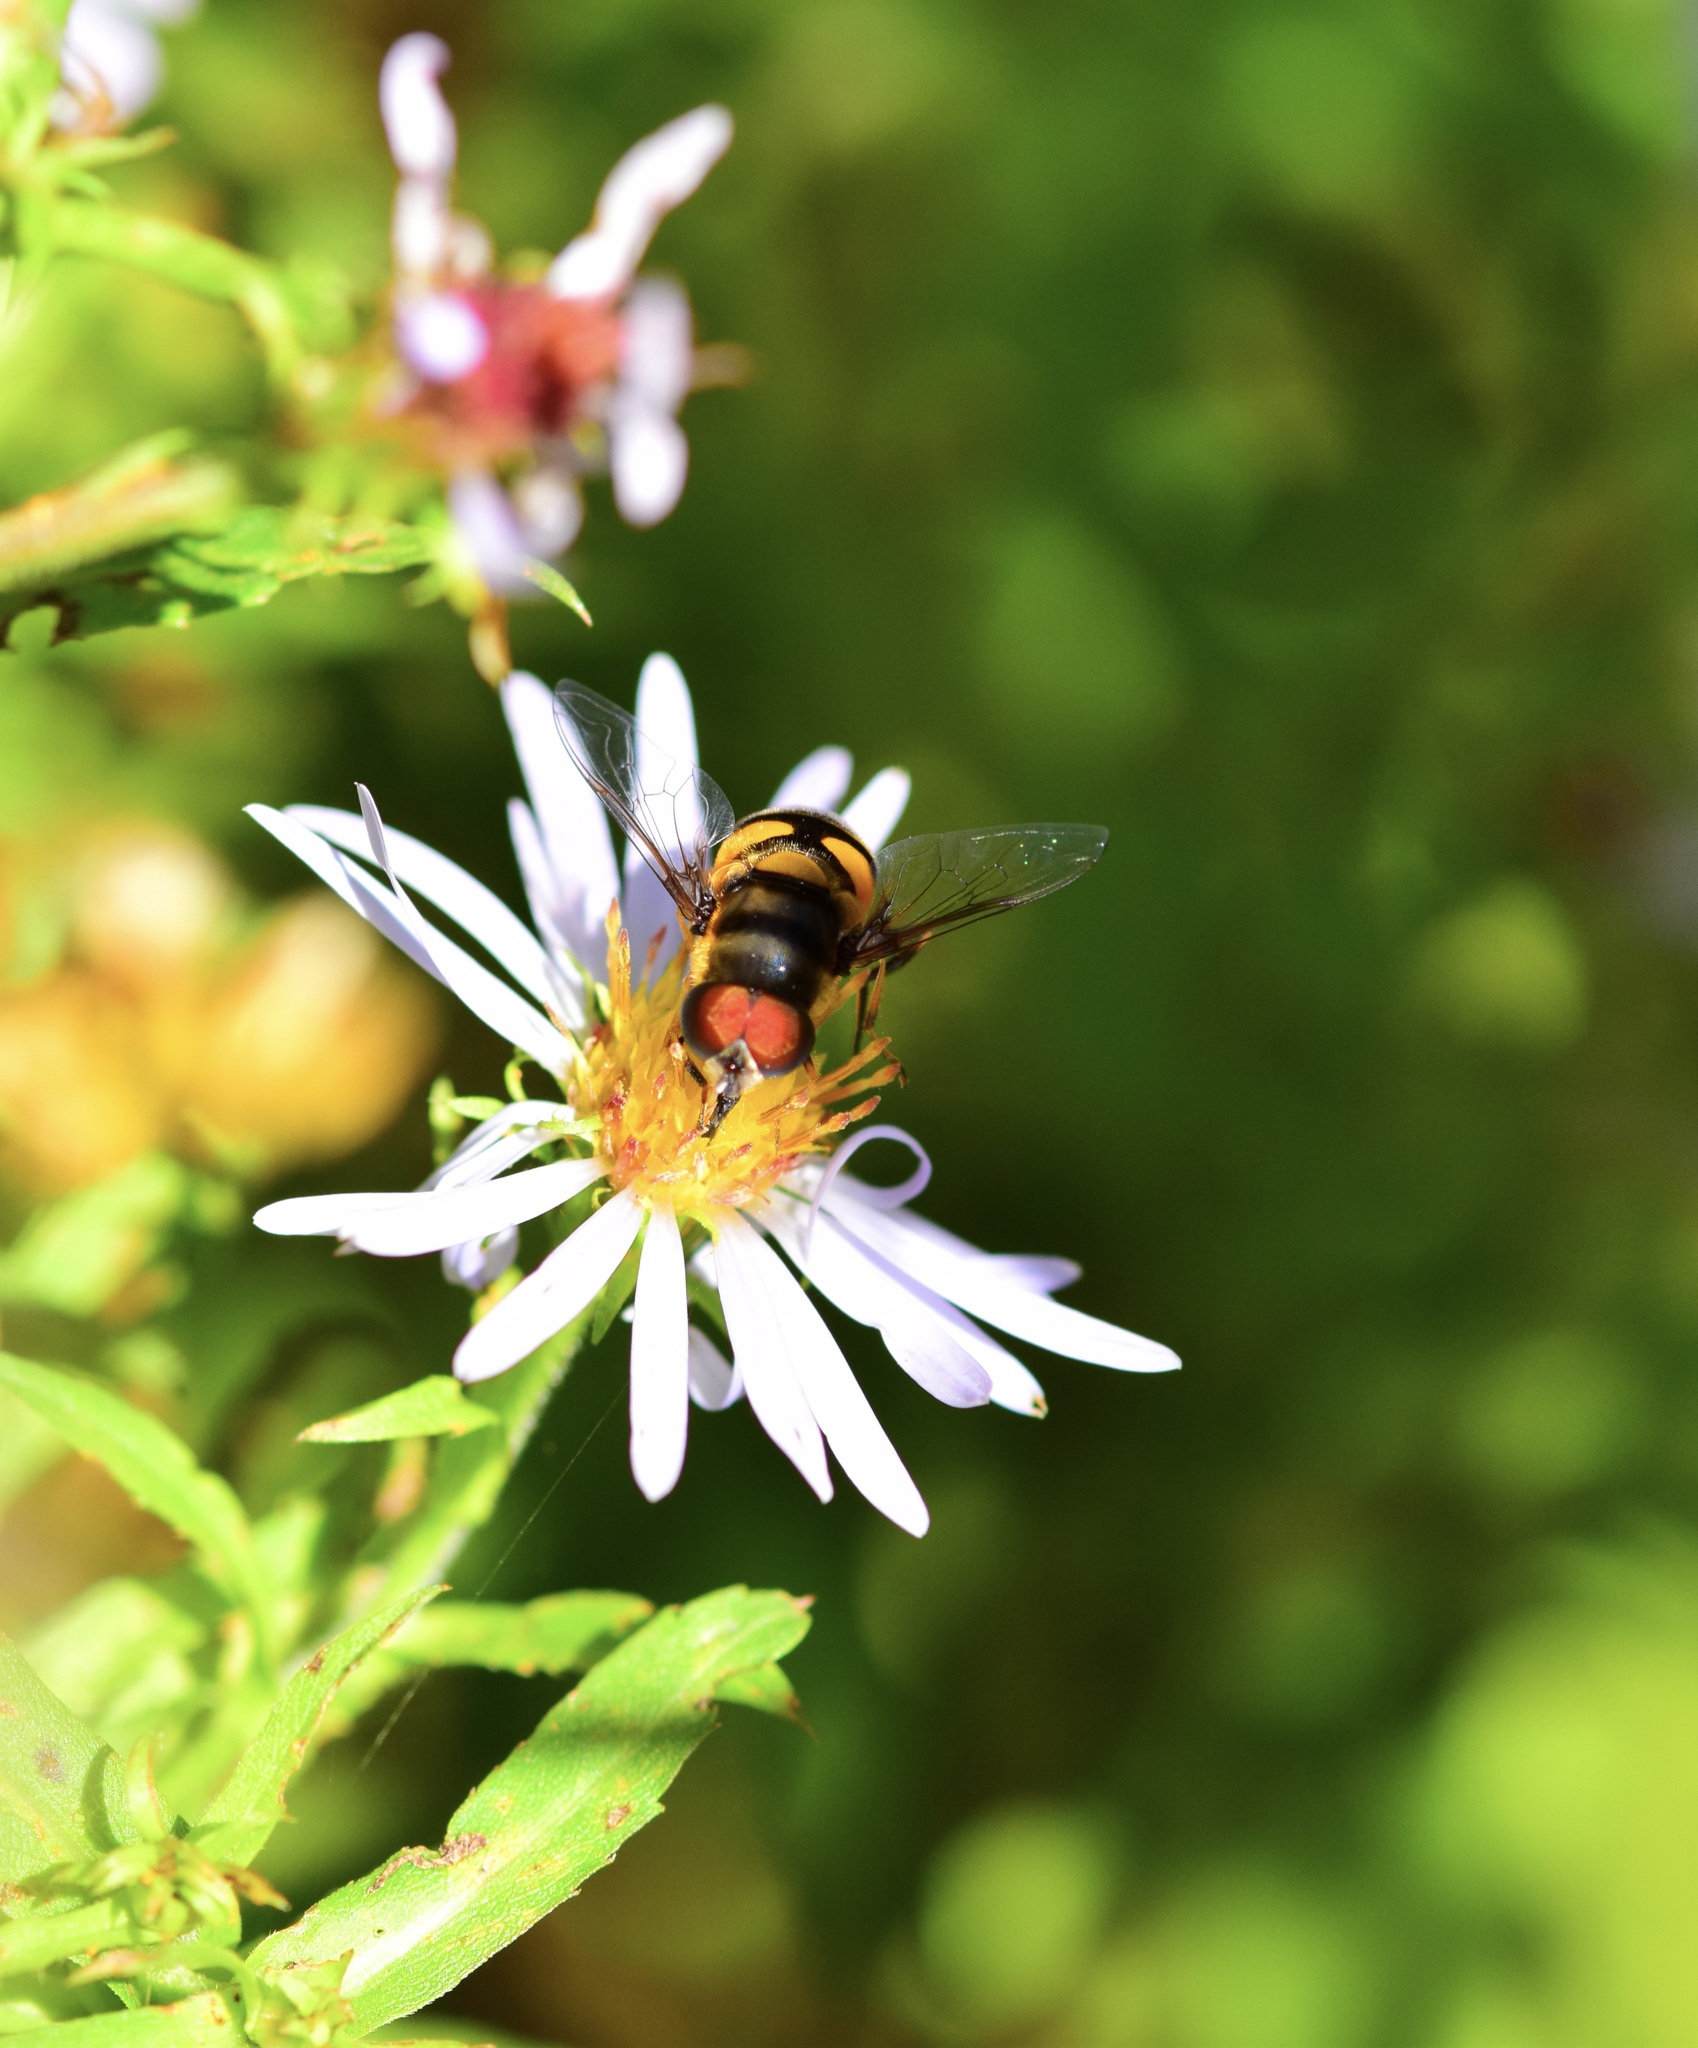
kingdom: Animalia
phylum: Arthropoda
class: Insecta
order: Diptera
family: Syrphidae
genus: Eristalis
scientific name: Eristalis transversa
